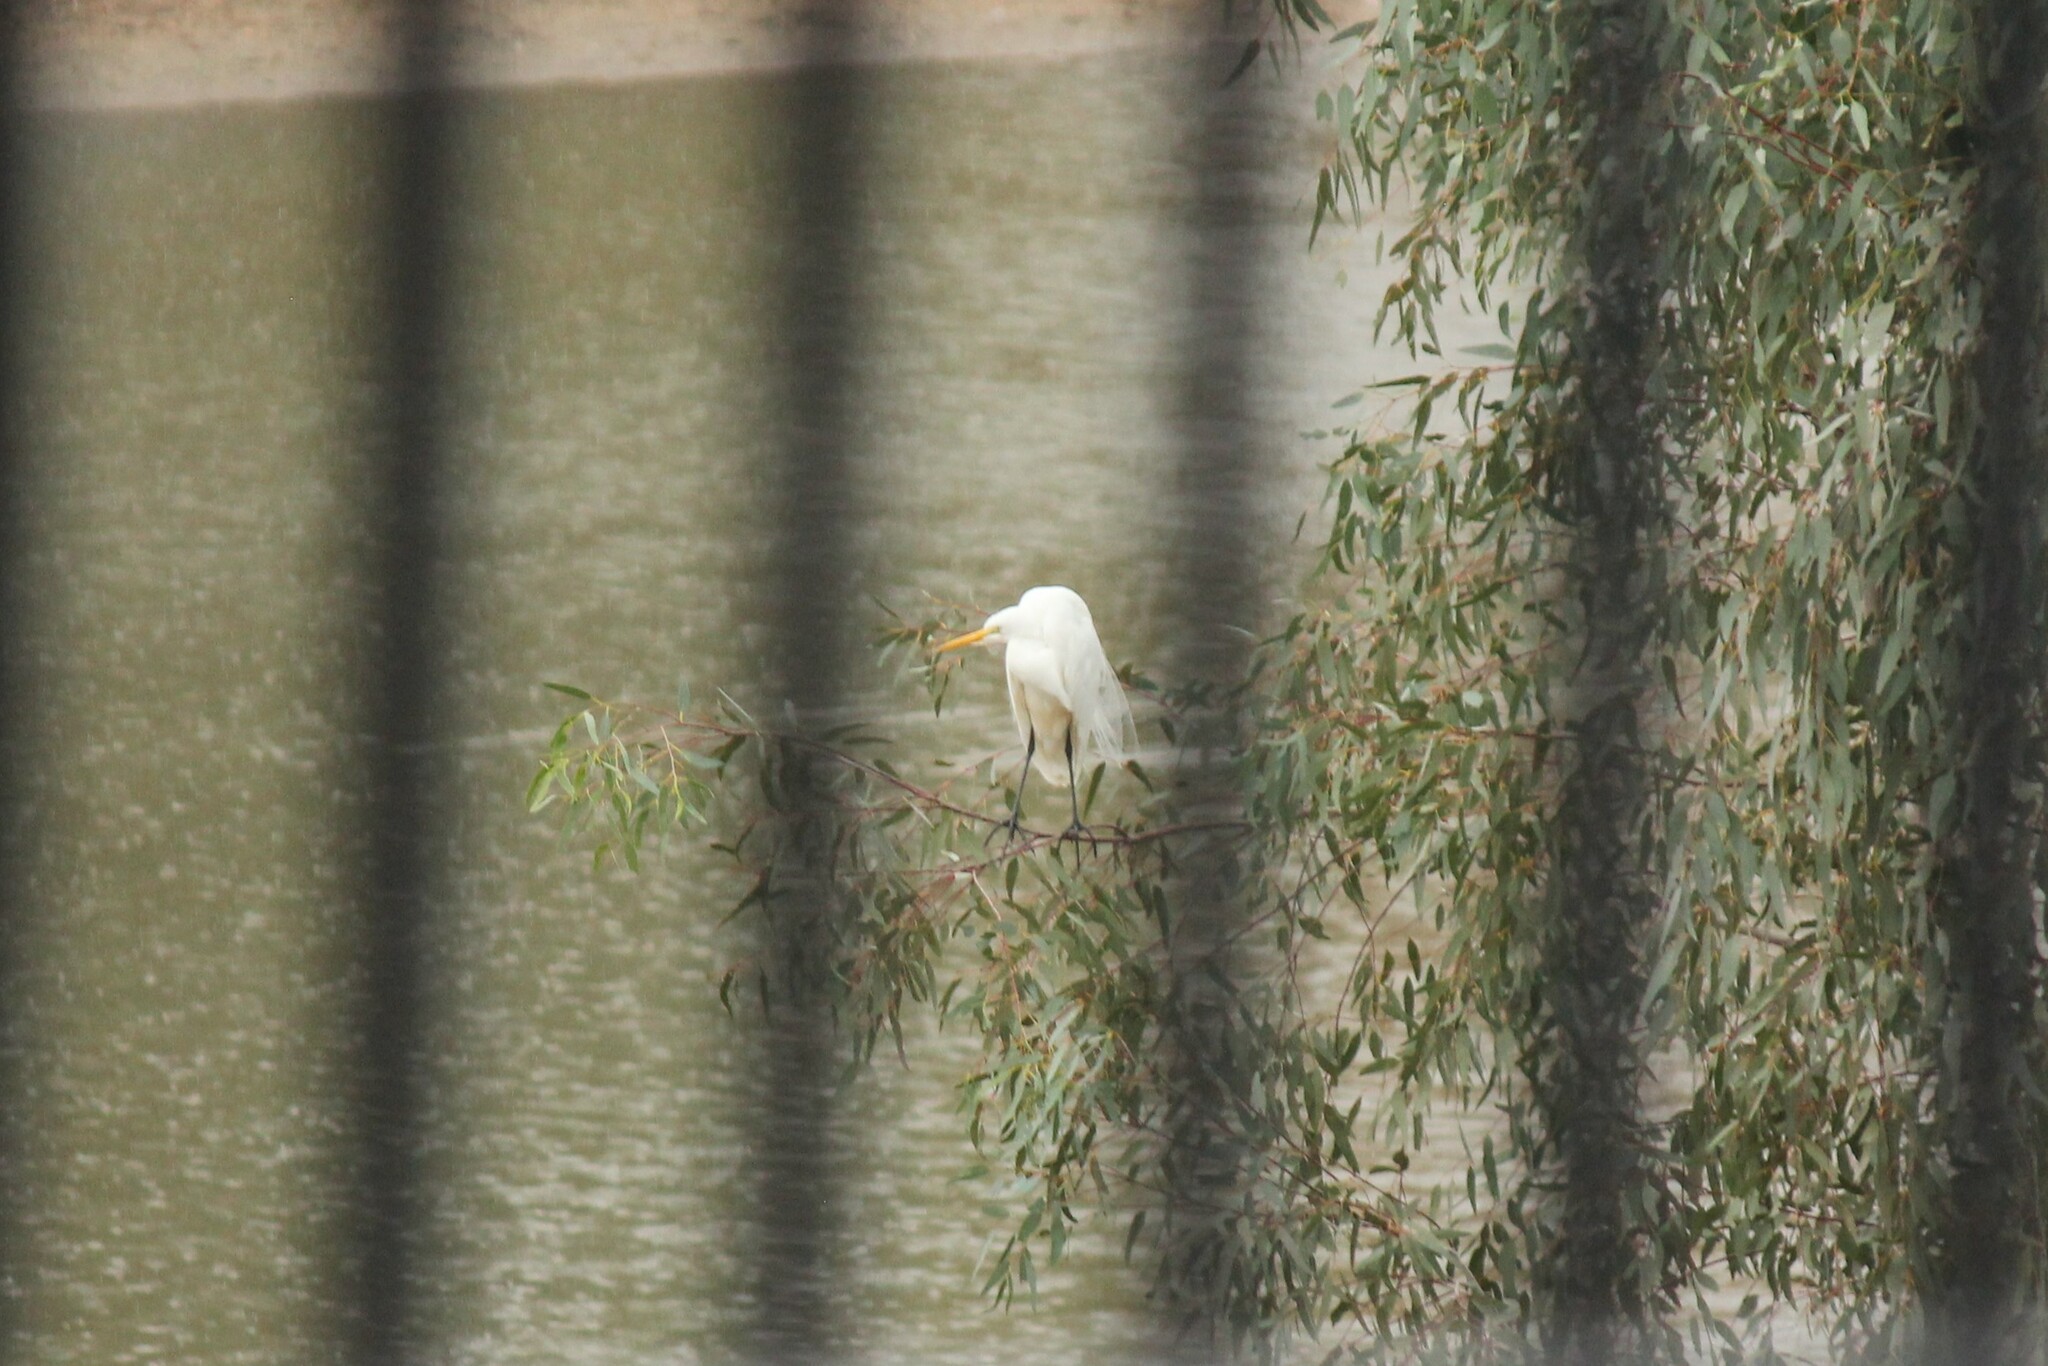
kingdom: Animalia
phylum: Chordata
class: Aves
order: Pelecaniformes
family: Ardeidae
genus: Ardea
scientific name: Ardea alba
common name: Great egret
